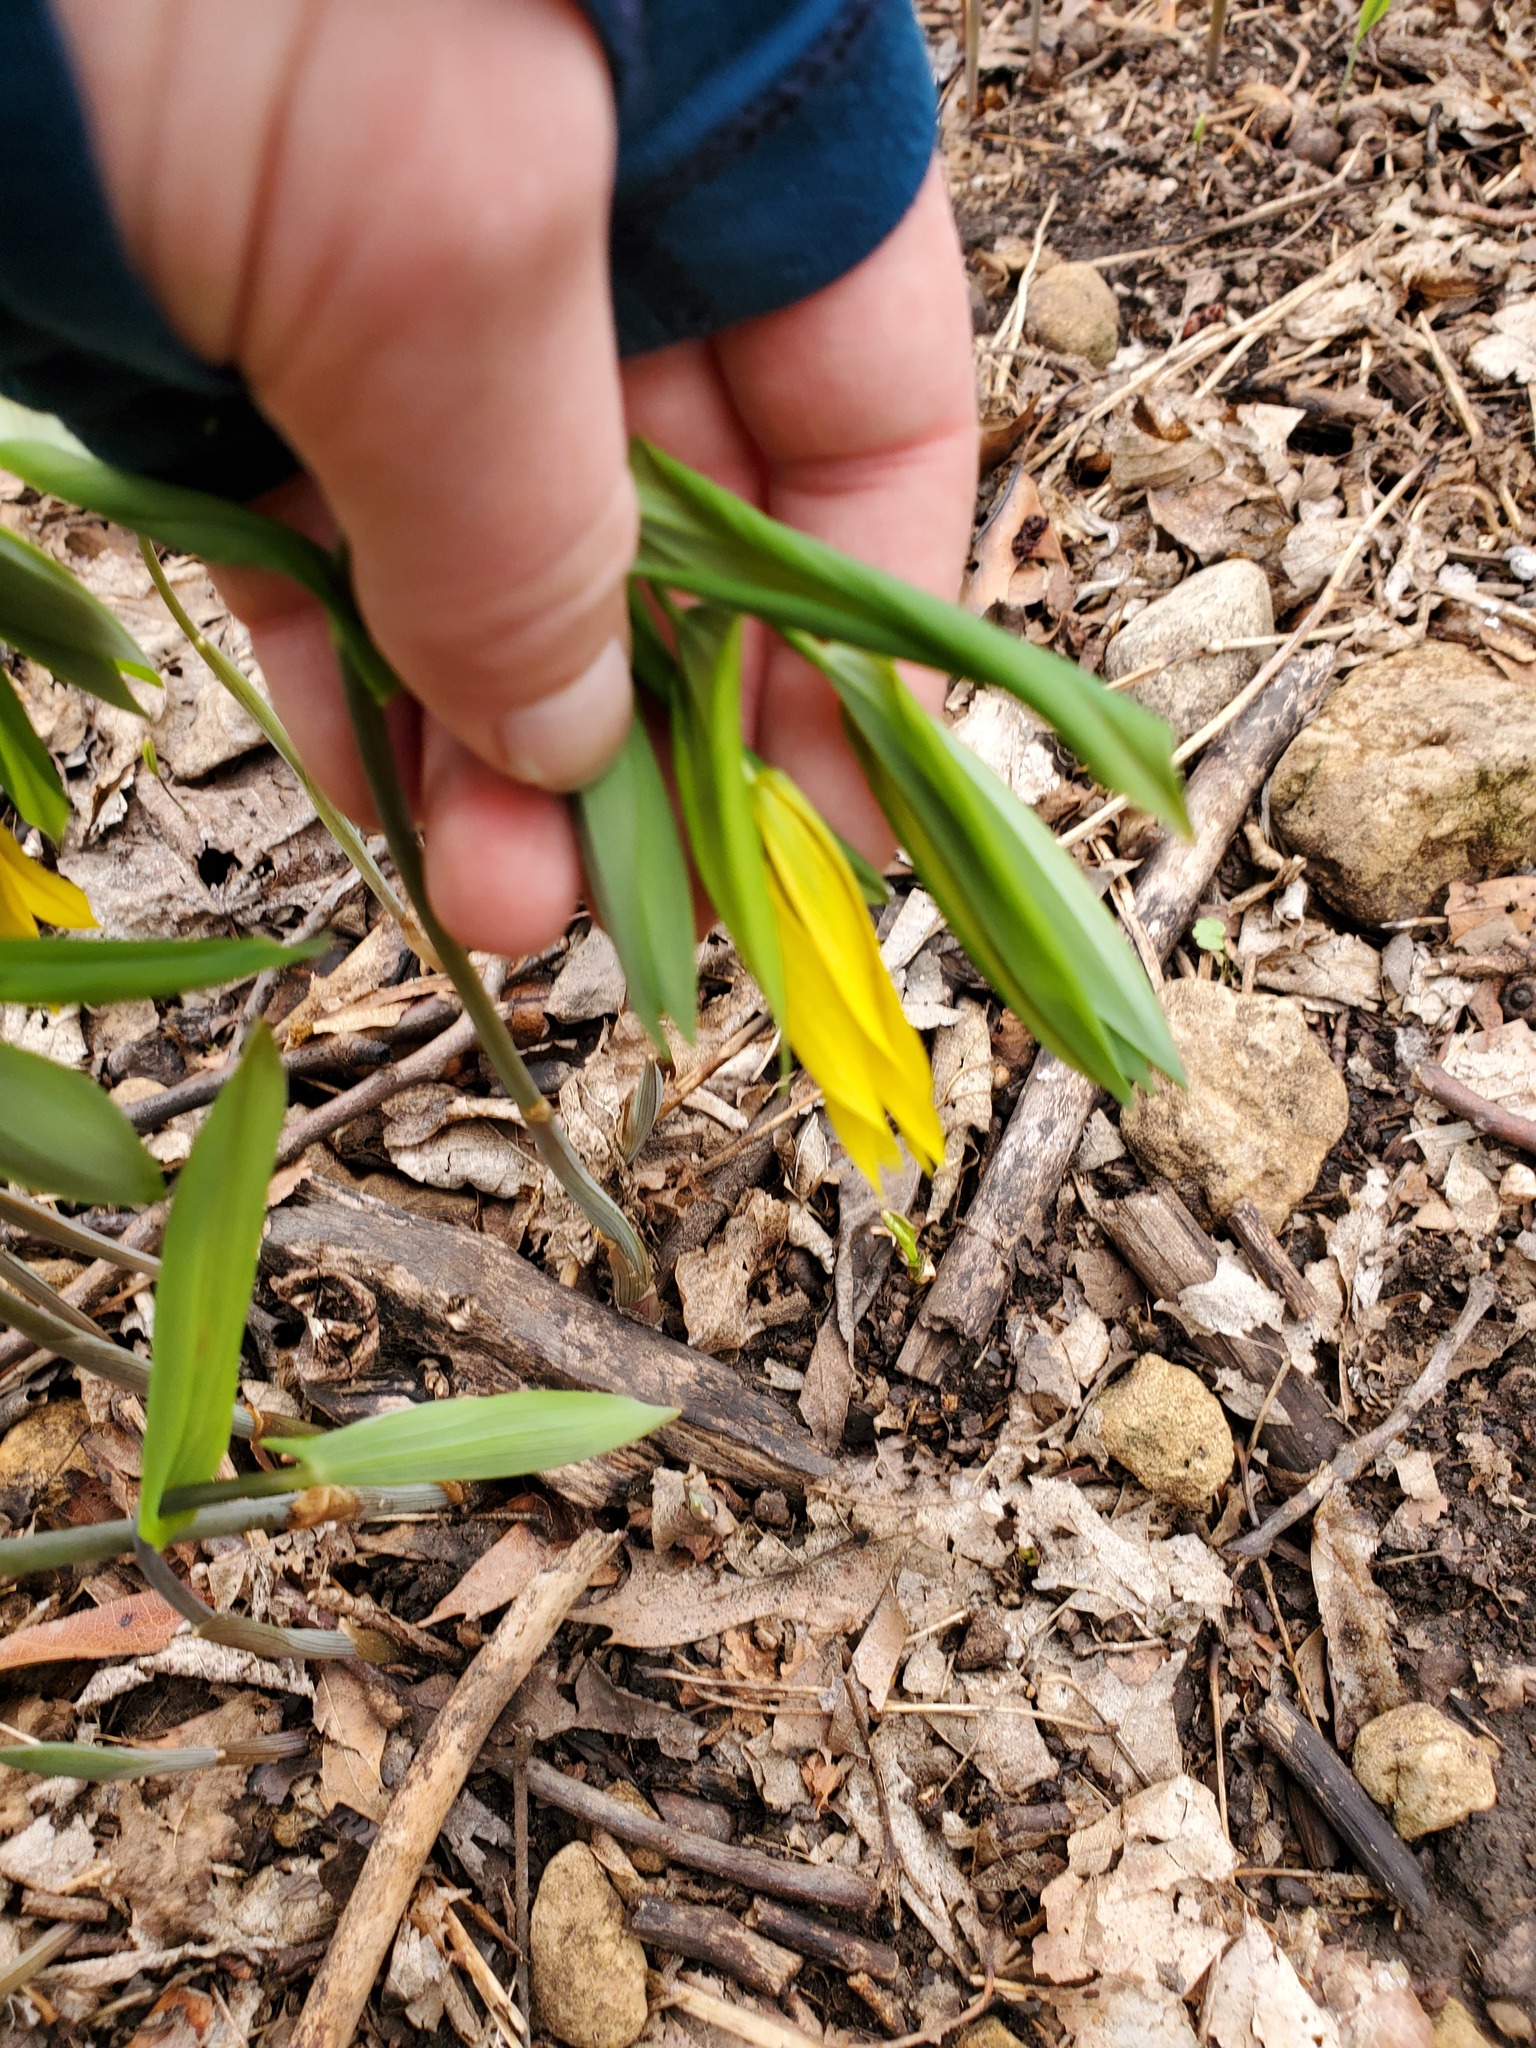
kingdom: Plantae
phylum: Tracheophyta
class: Liliopsida
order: Liliales
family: Colchicaceae
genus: Uvularia
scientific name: Uvularia grandiflora
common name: Bellwort
